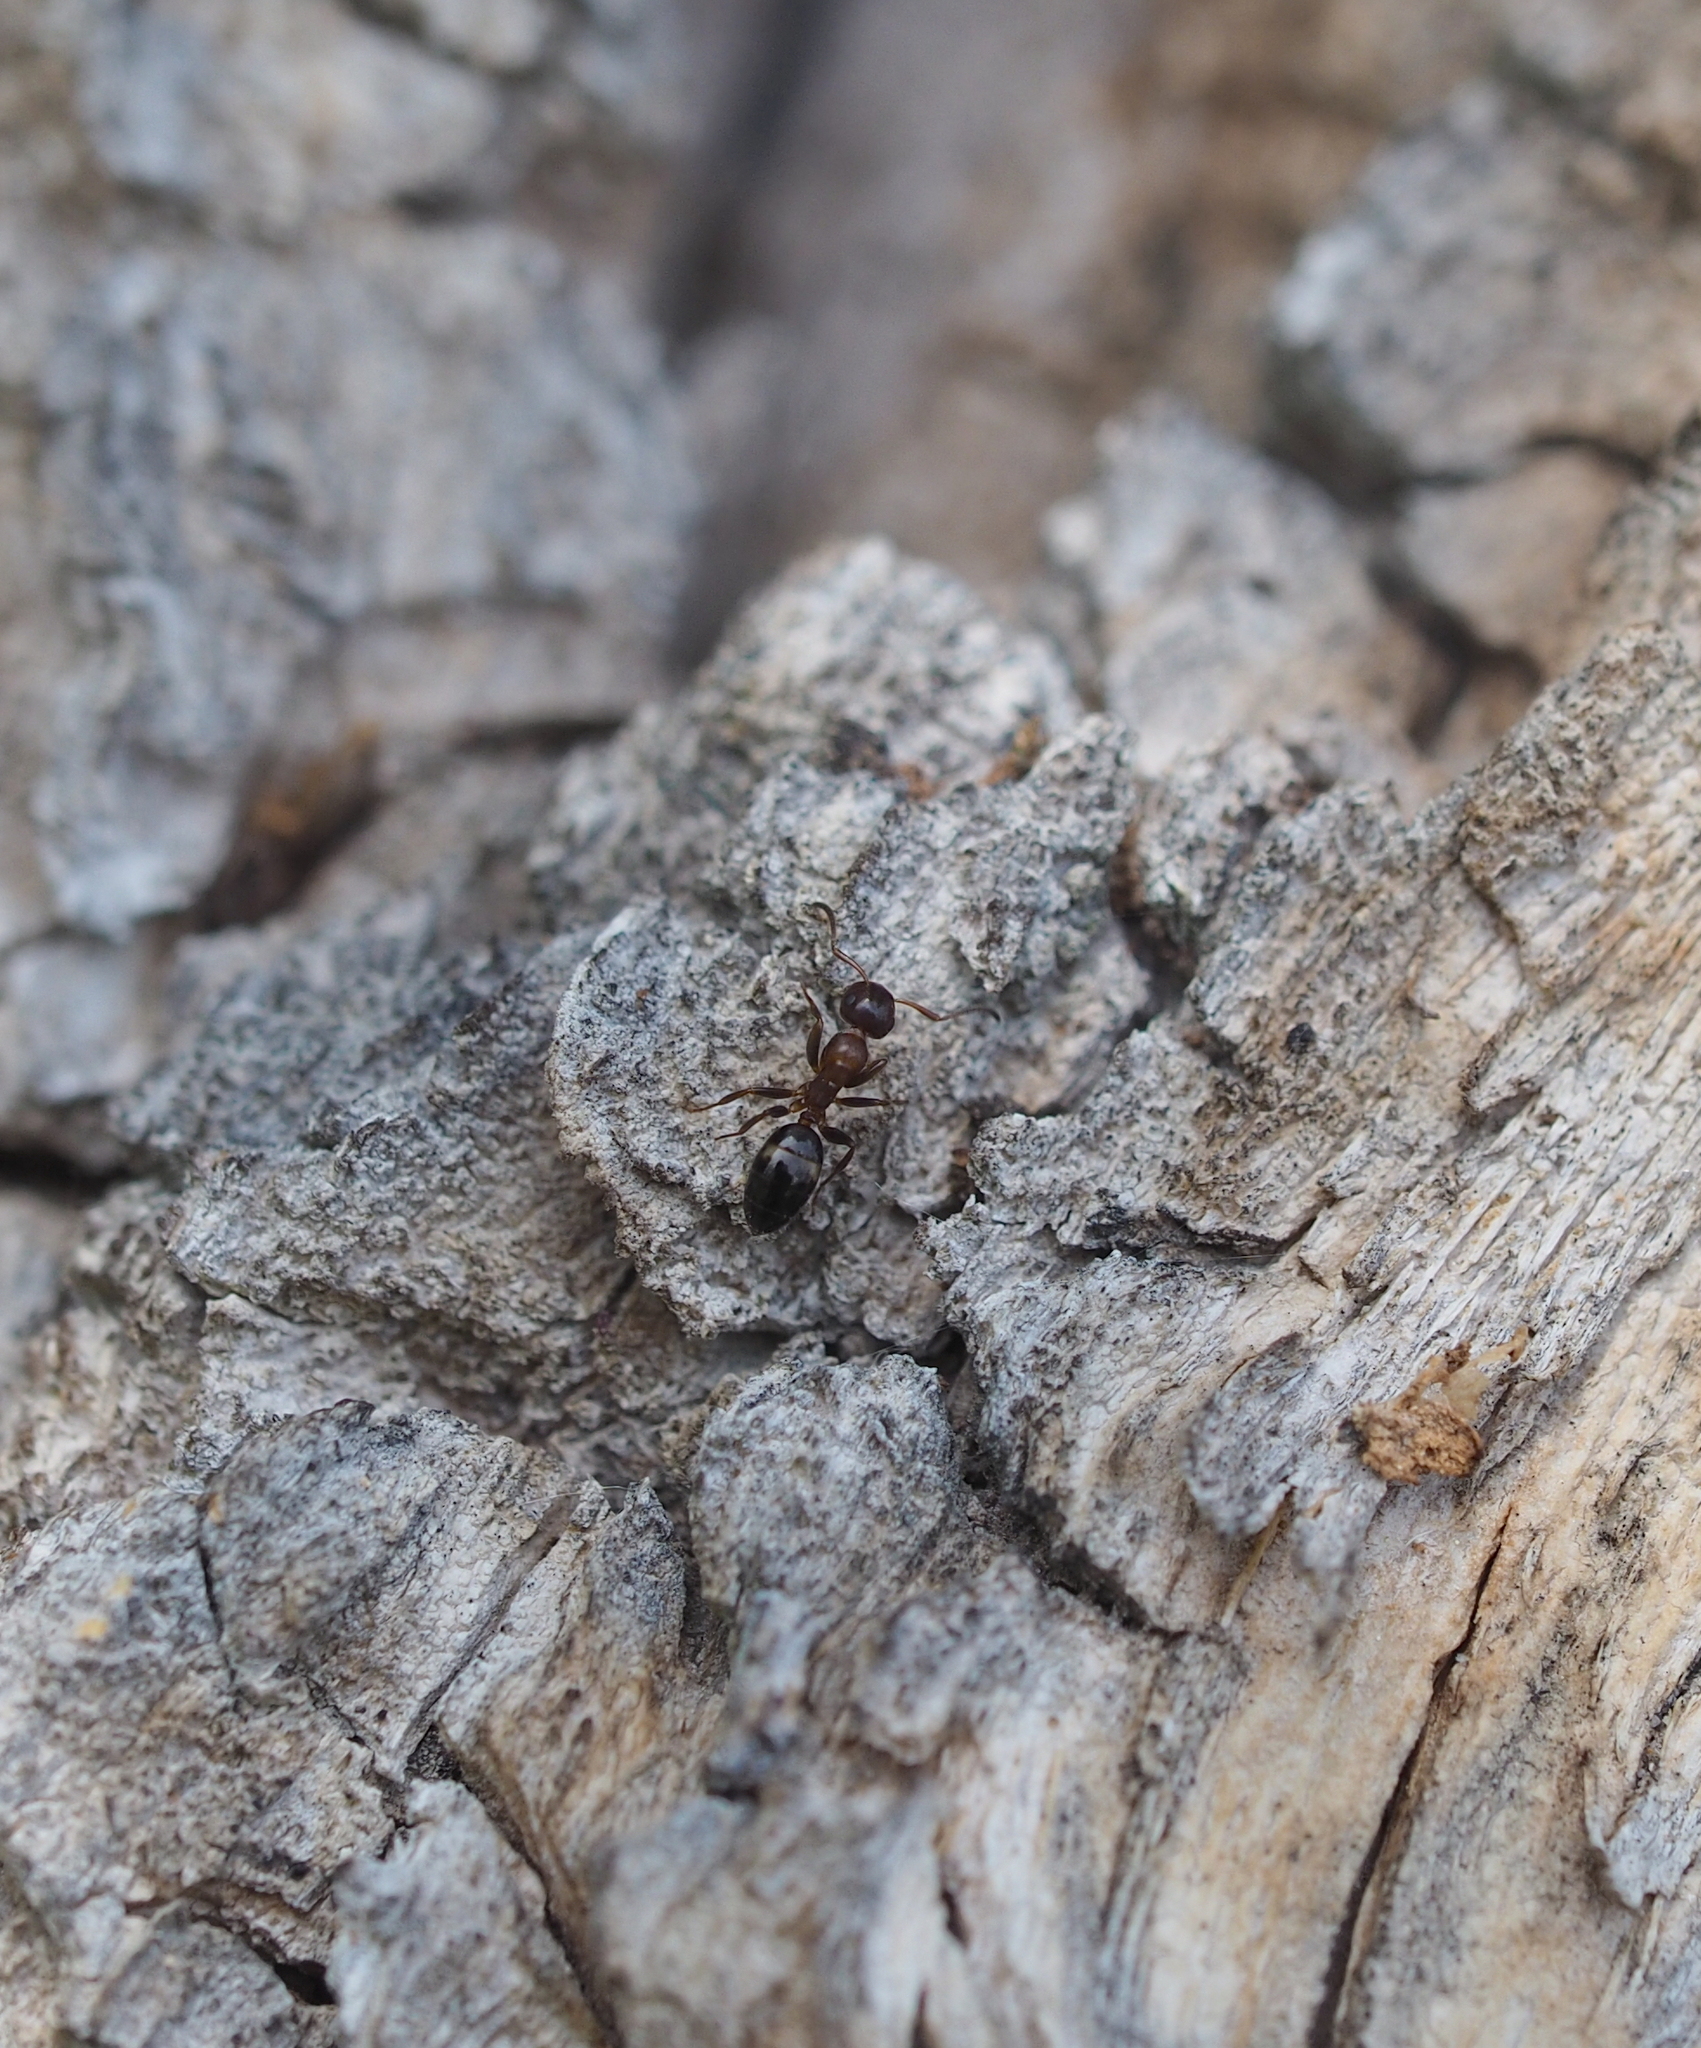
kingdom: Animalia
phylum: Arthropoda
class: Insecta
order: Hymenoptera
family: Formicidae
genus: Camponotus
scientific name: Camponotus truncatus
